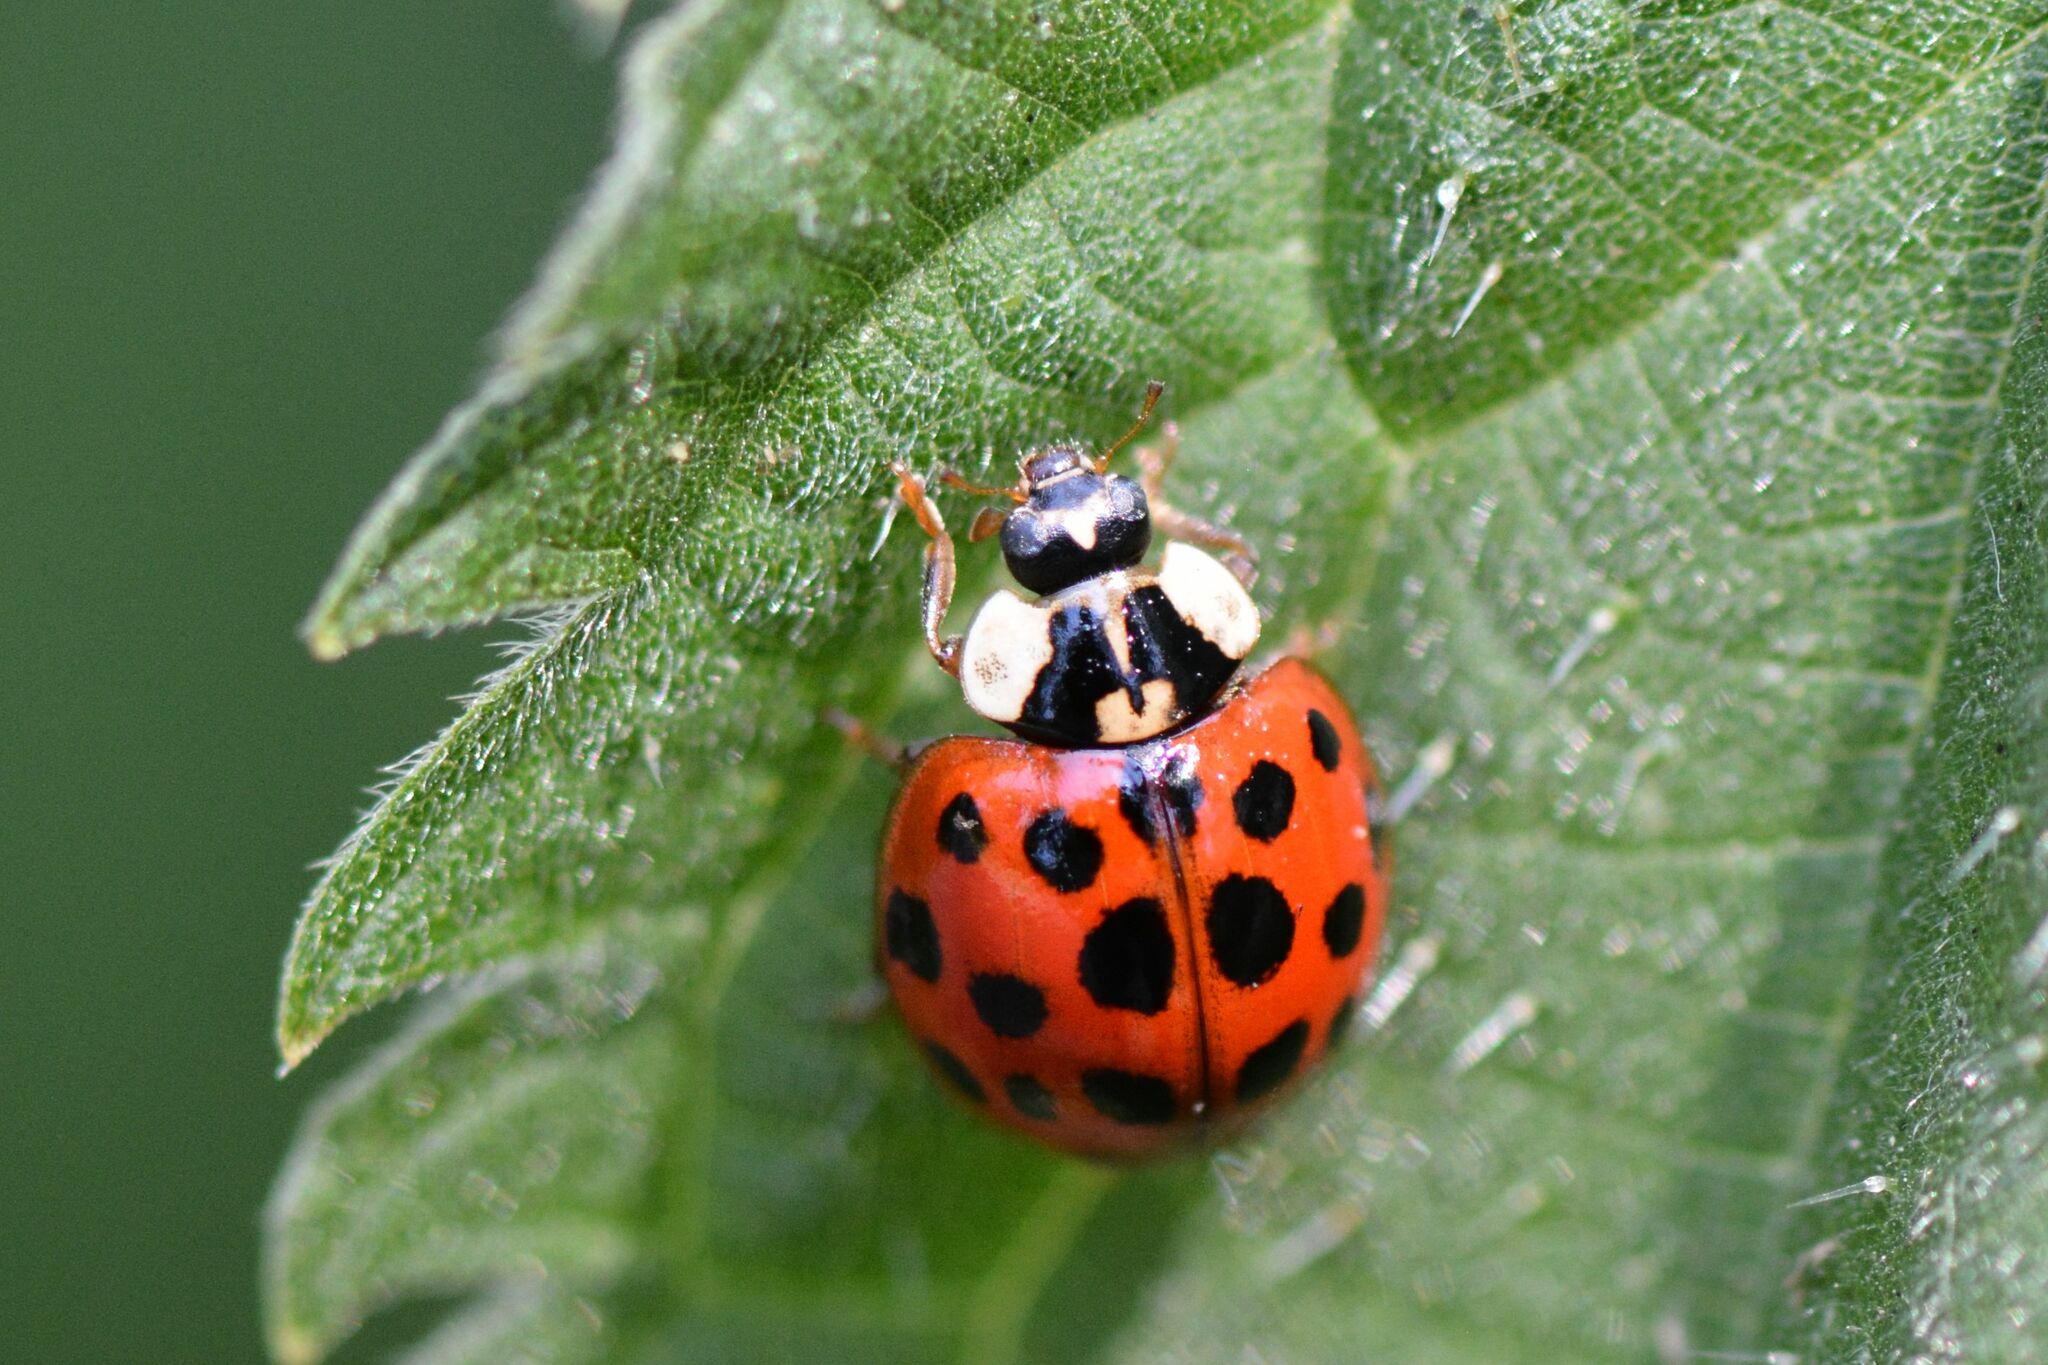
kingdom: Animalia
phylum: Arthropoda
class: Insecta
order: Coleoptera
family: Coccinellidae
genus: Harmonia
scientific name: Harmonia axyridis
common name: Harlequin ladybird
